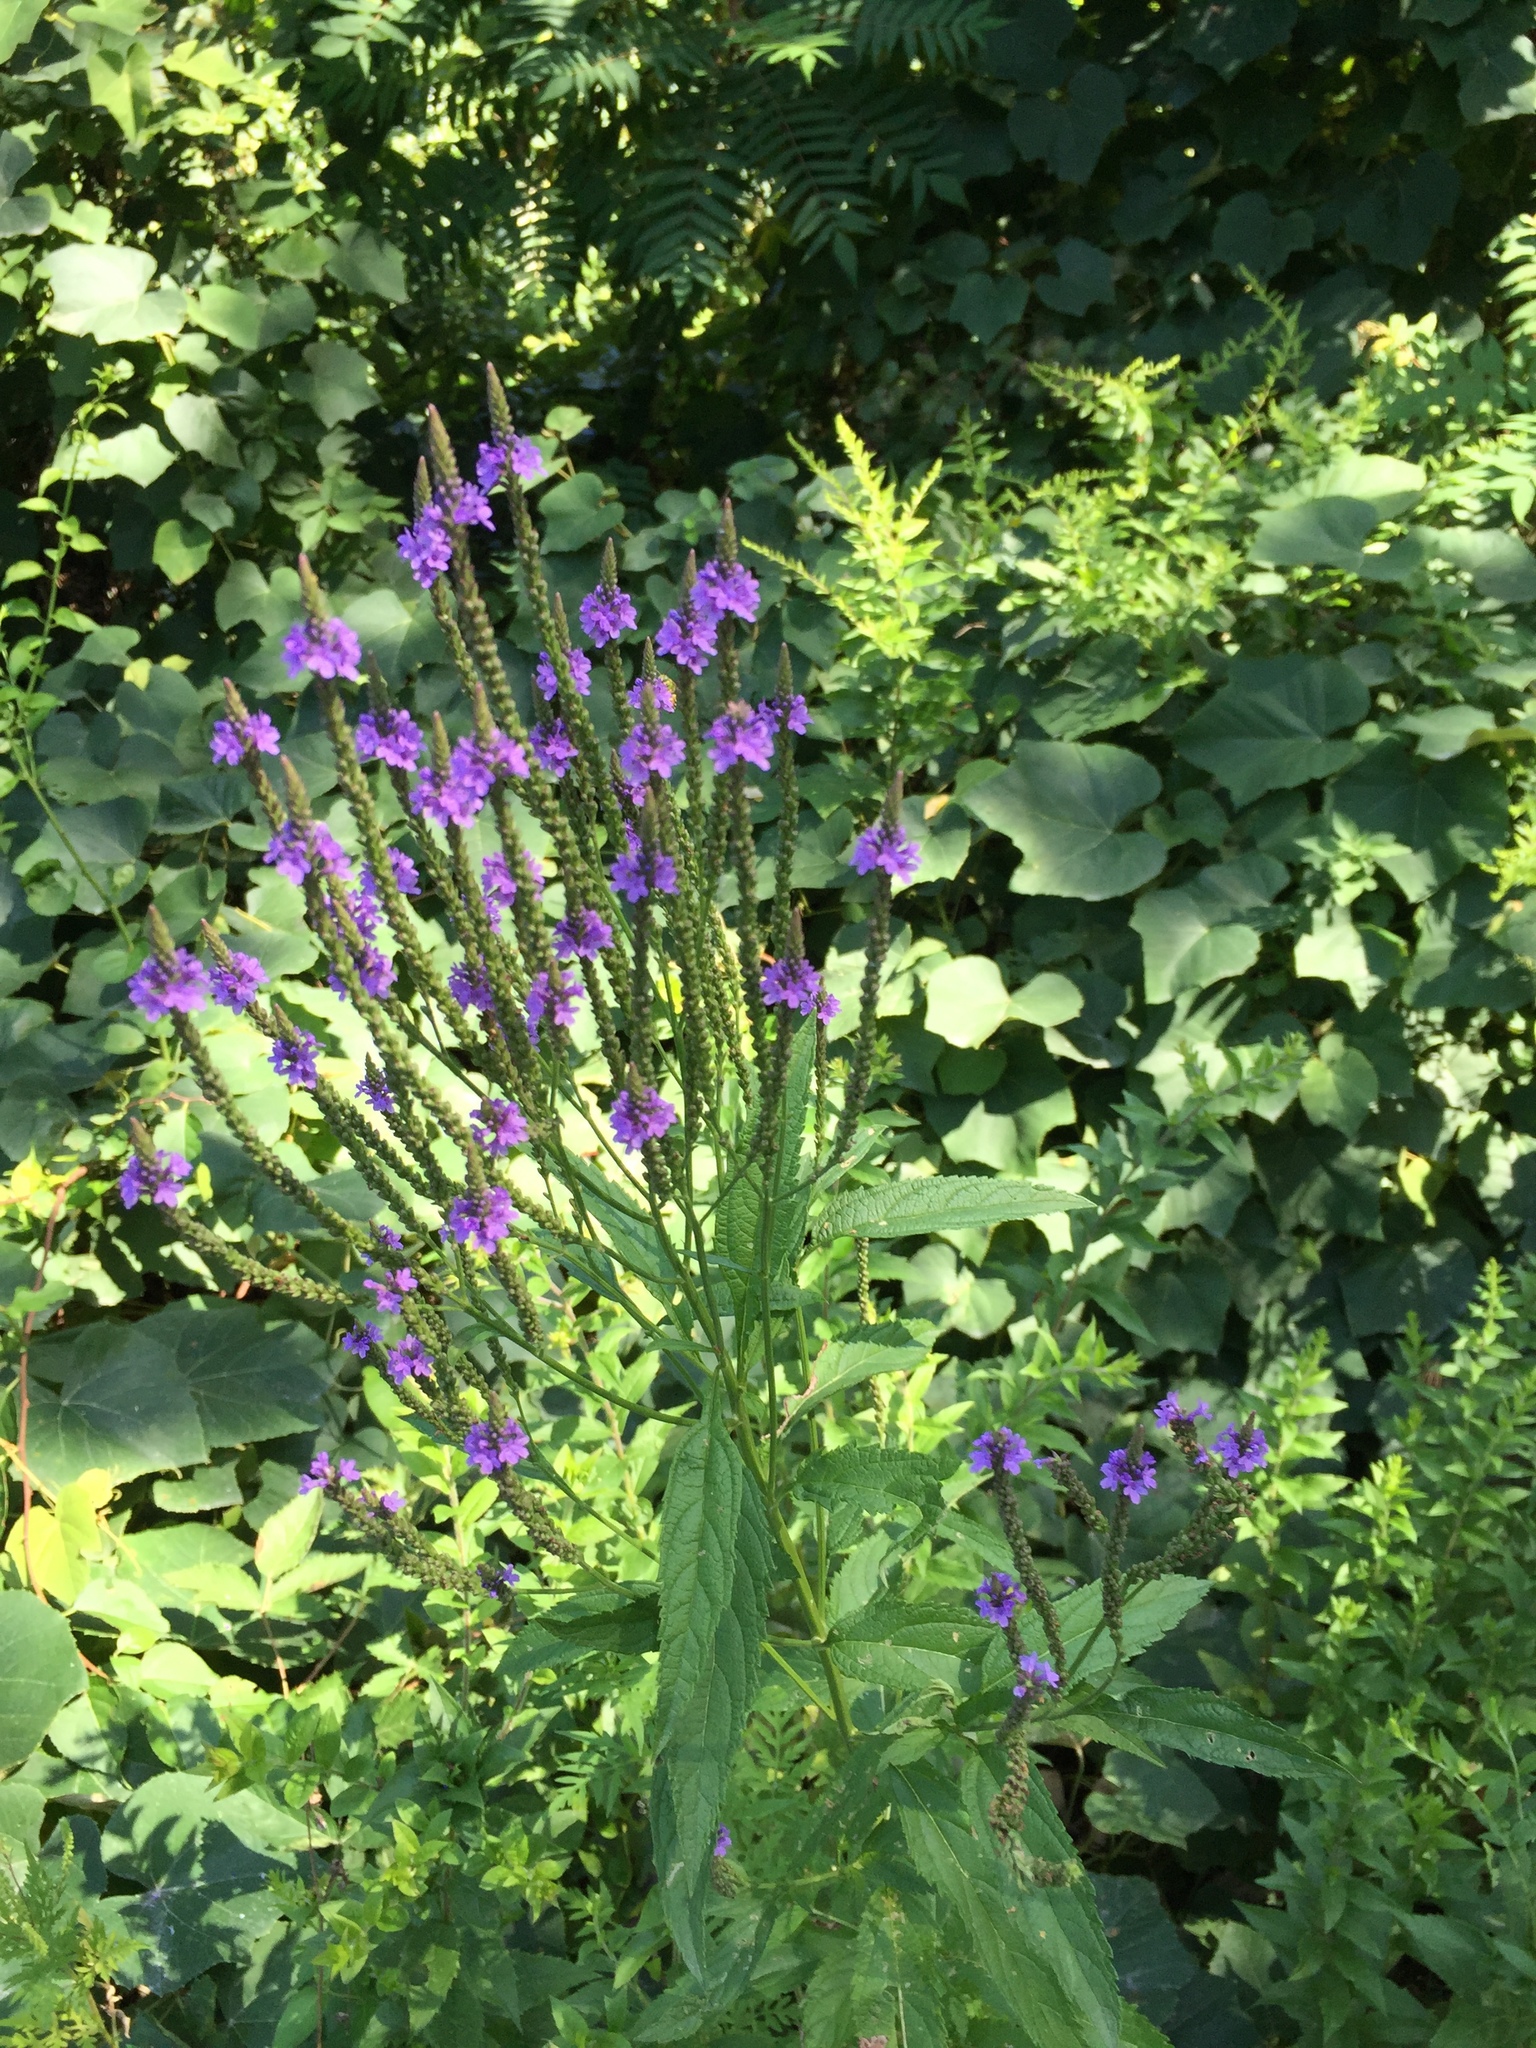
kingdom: Plantae
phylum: Tracheophyta
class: Magnoliopsida
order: Lamiales
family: Verbenaceae
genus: Verbena
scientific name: Verbena hastata
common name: American blue vervain
